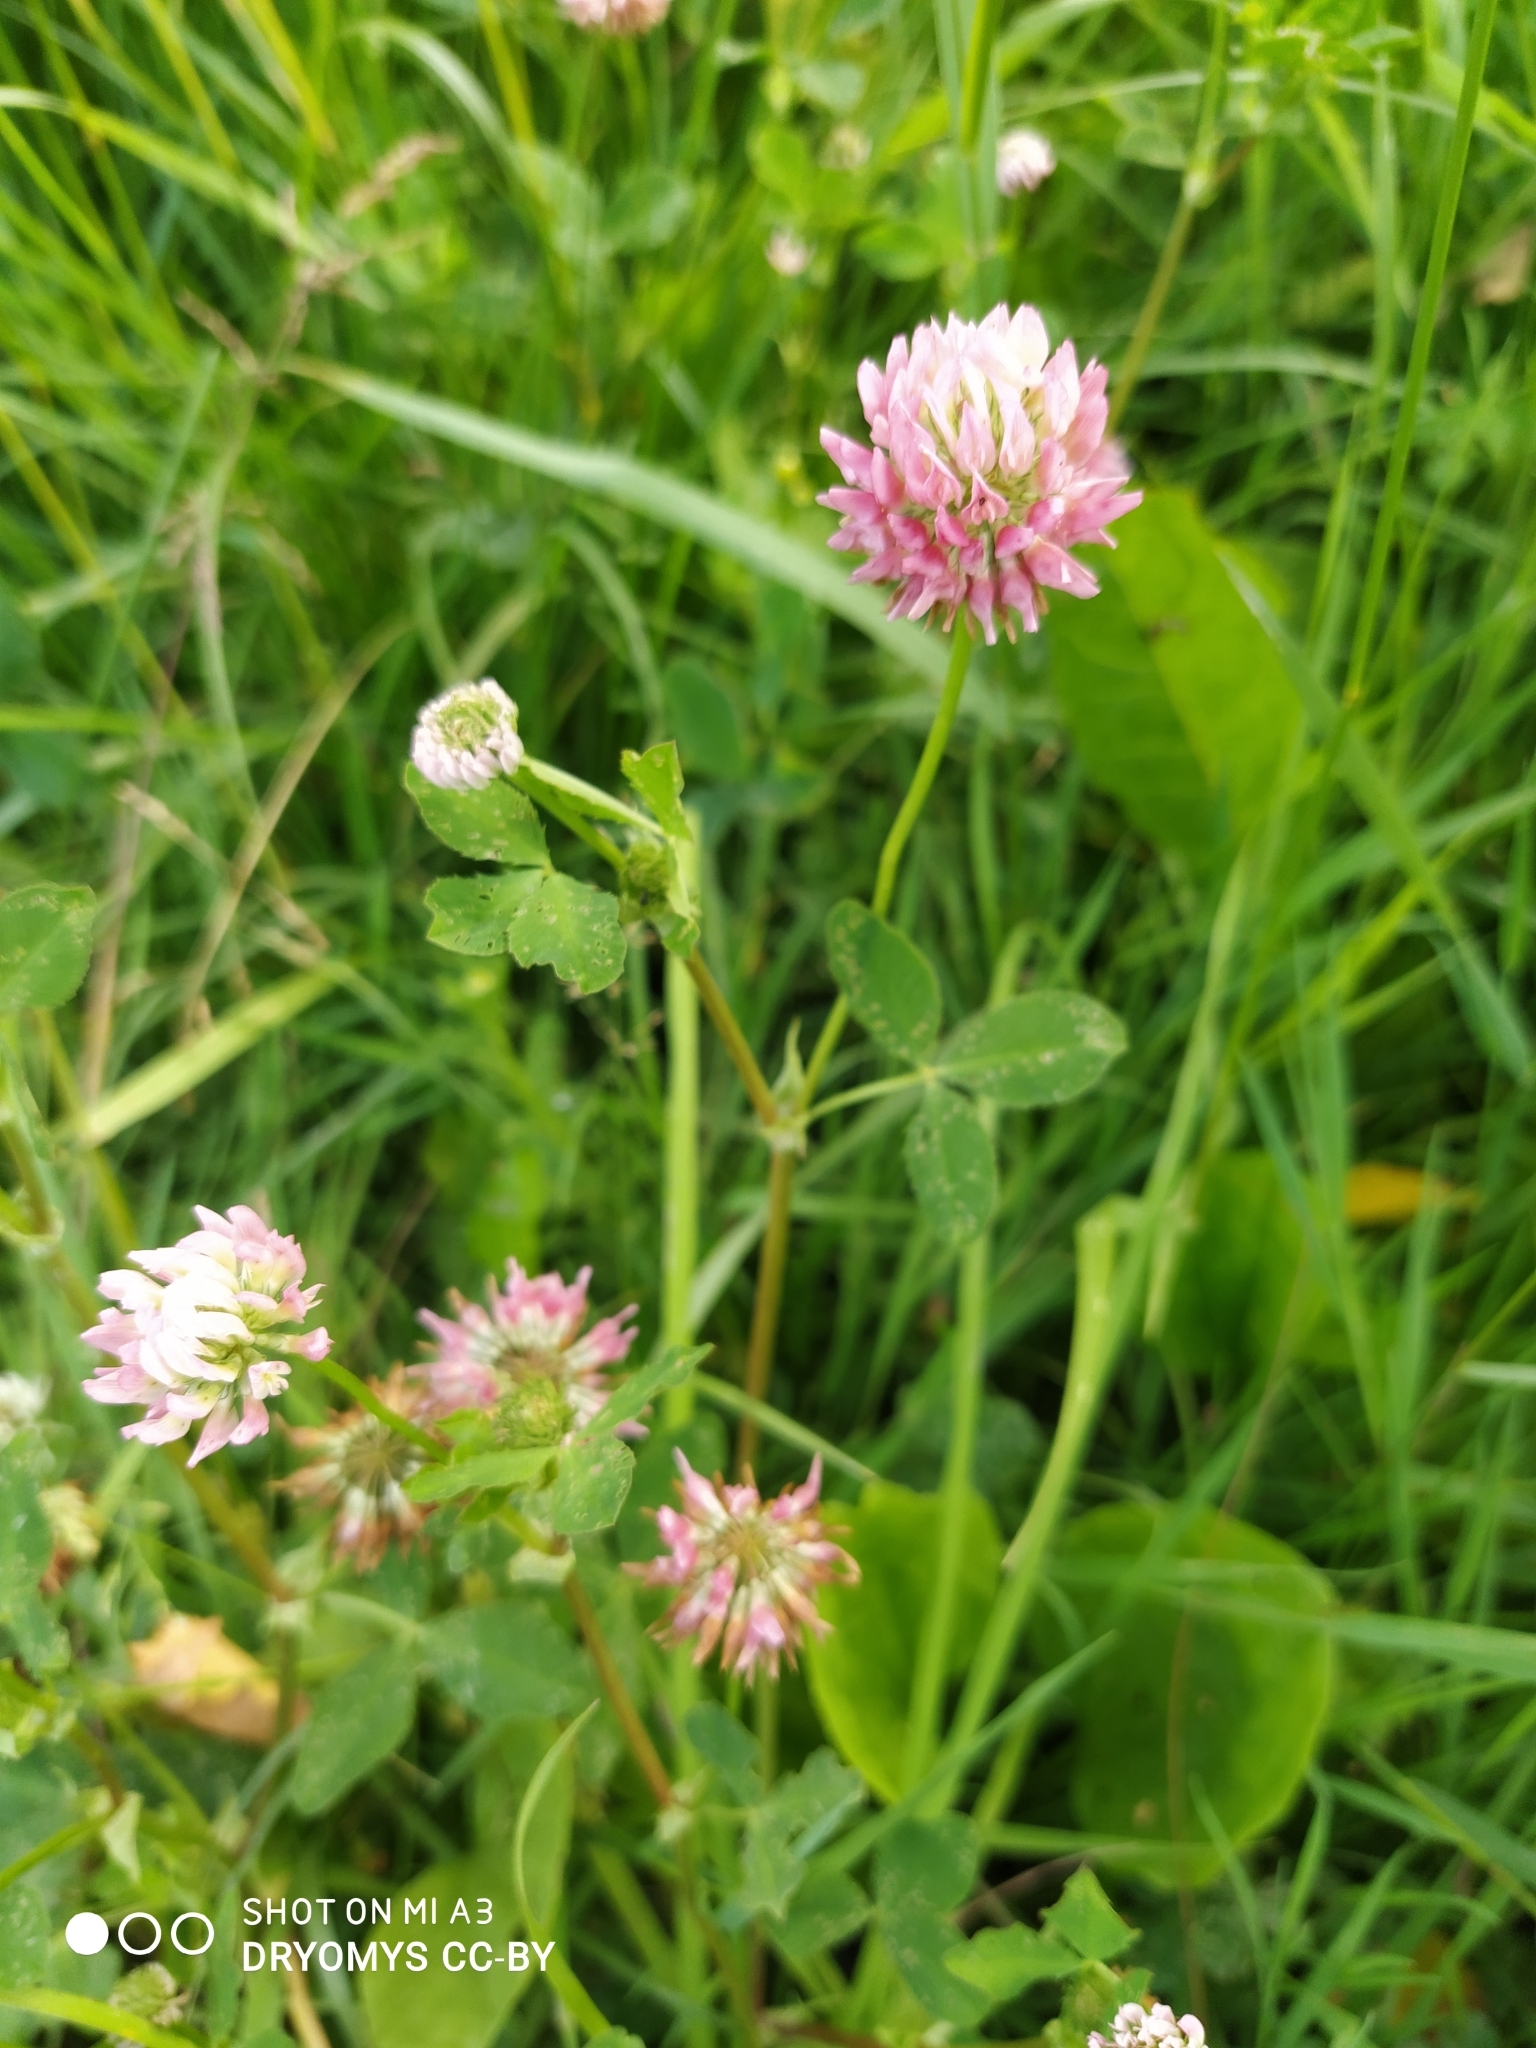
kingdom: Plantae
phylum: Tracheophyta
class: Magnoliopsida
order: Fabales
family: Fabaceae
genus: Trifolium
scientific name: Trifolium hybridum
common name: Alsike clover
